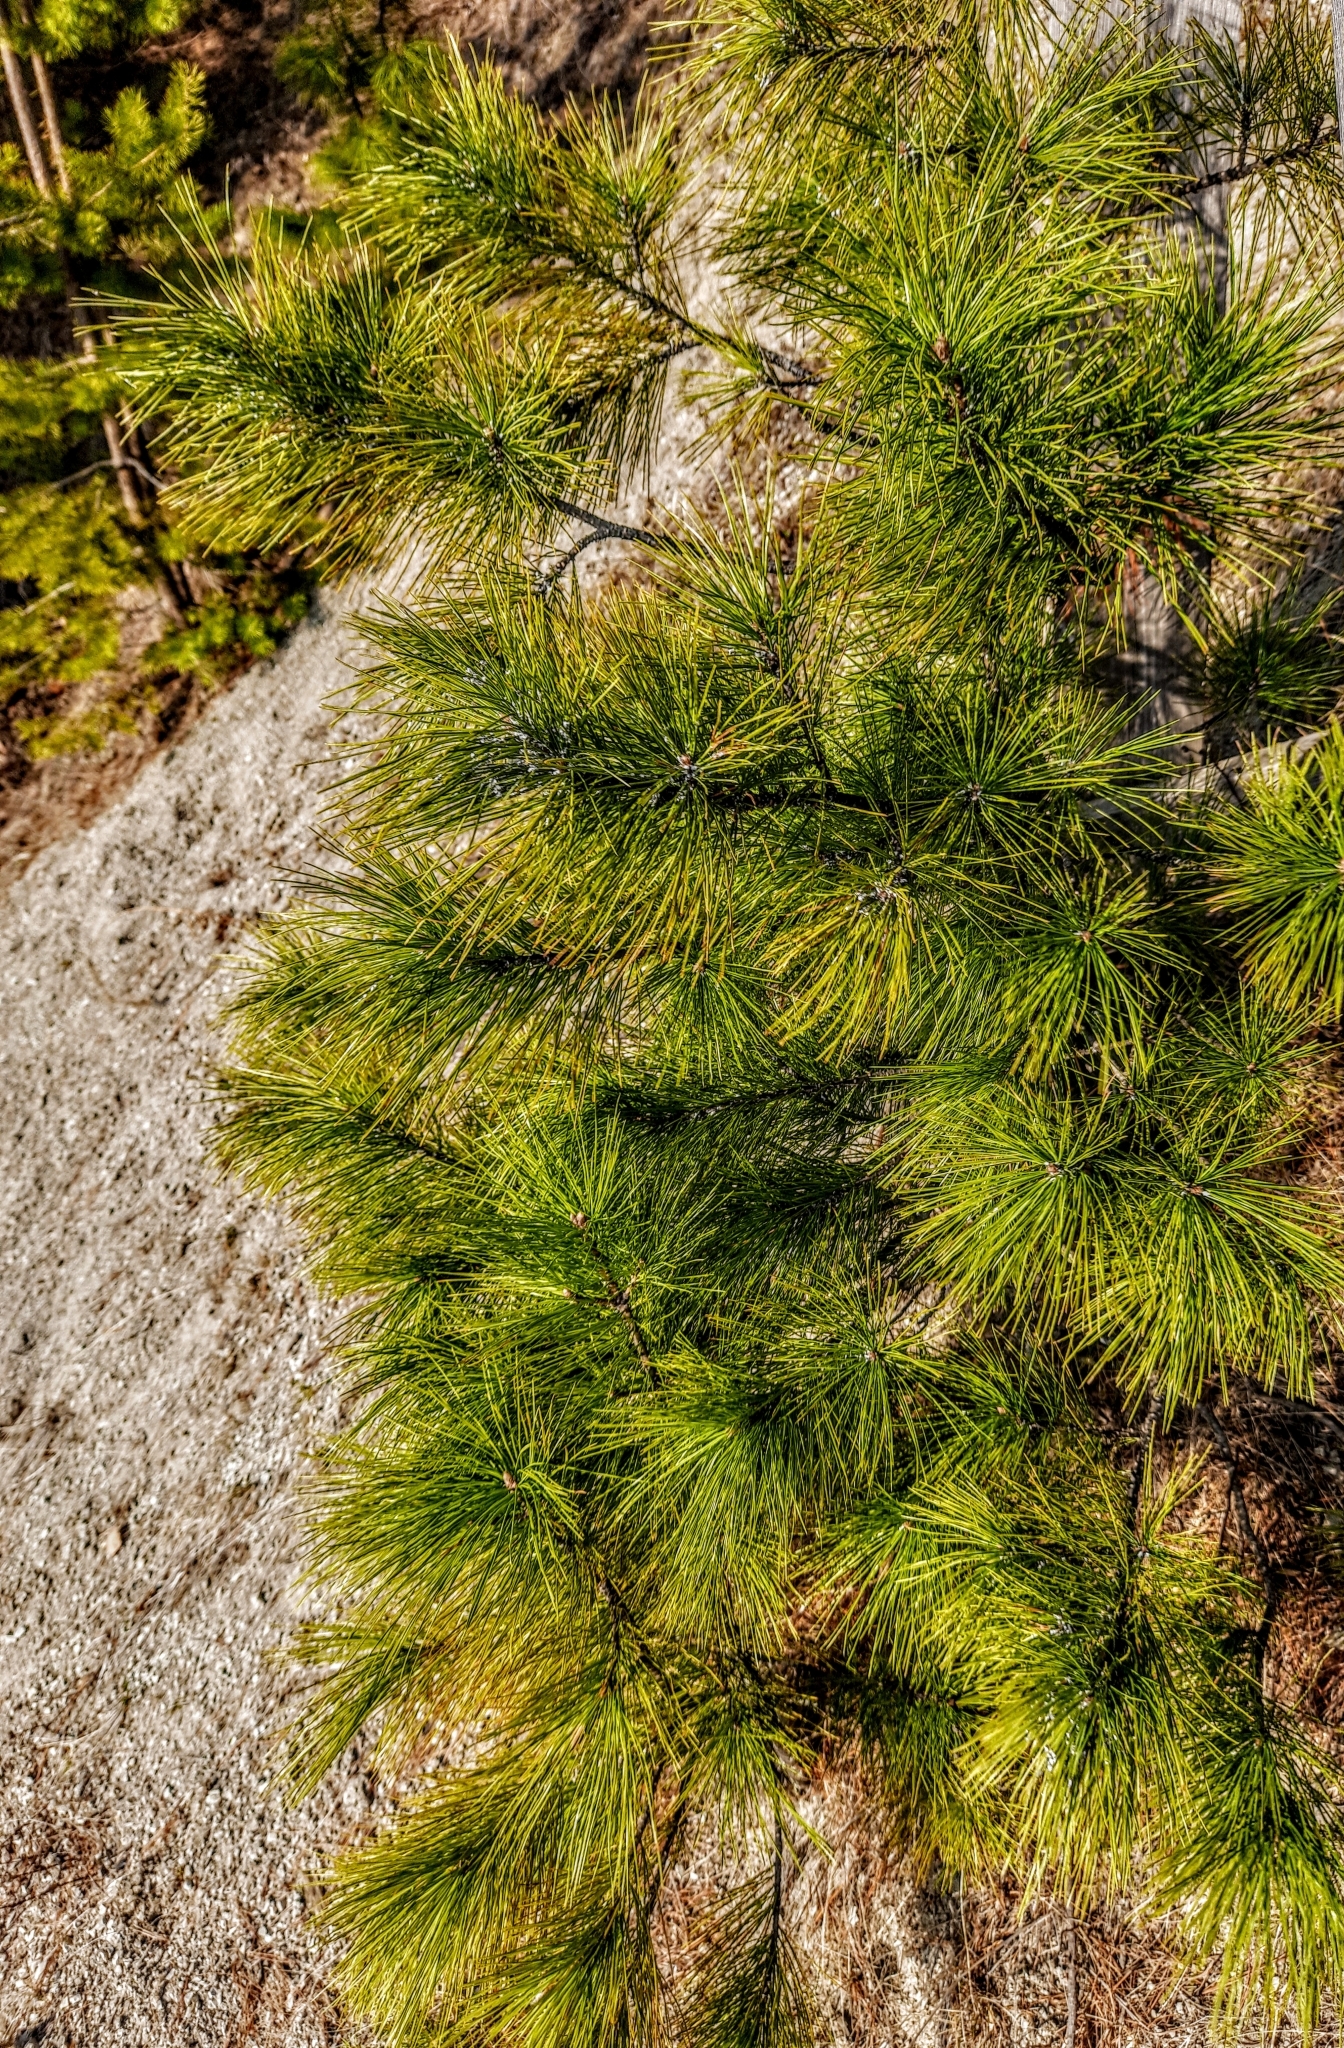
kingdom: Plantae
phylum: Tracheophyta
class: Pinopsida
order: Pinales
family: Pinaceae
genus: Pinus
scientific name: Pinus sibirica
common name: Siberian pine
